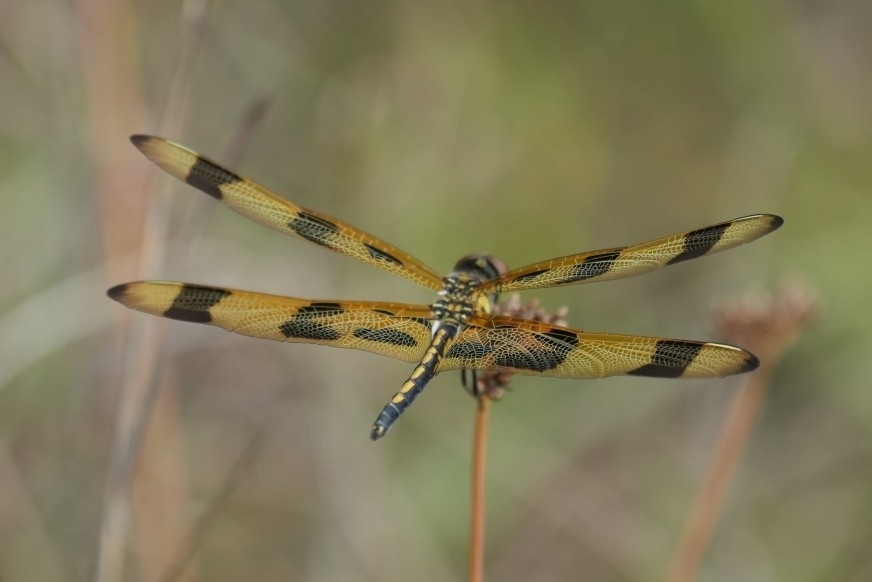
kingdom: Animalia
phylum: Arthropoda
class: Insecta
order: Odonata
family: Libellulidae
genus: Celithemis
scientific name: Celithemis eponina
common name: Halloween pennant
